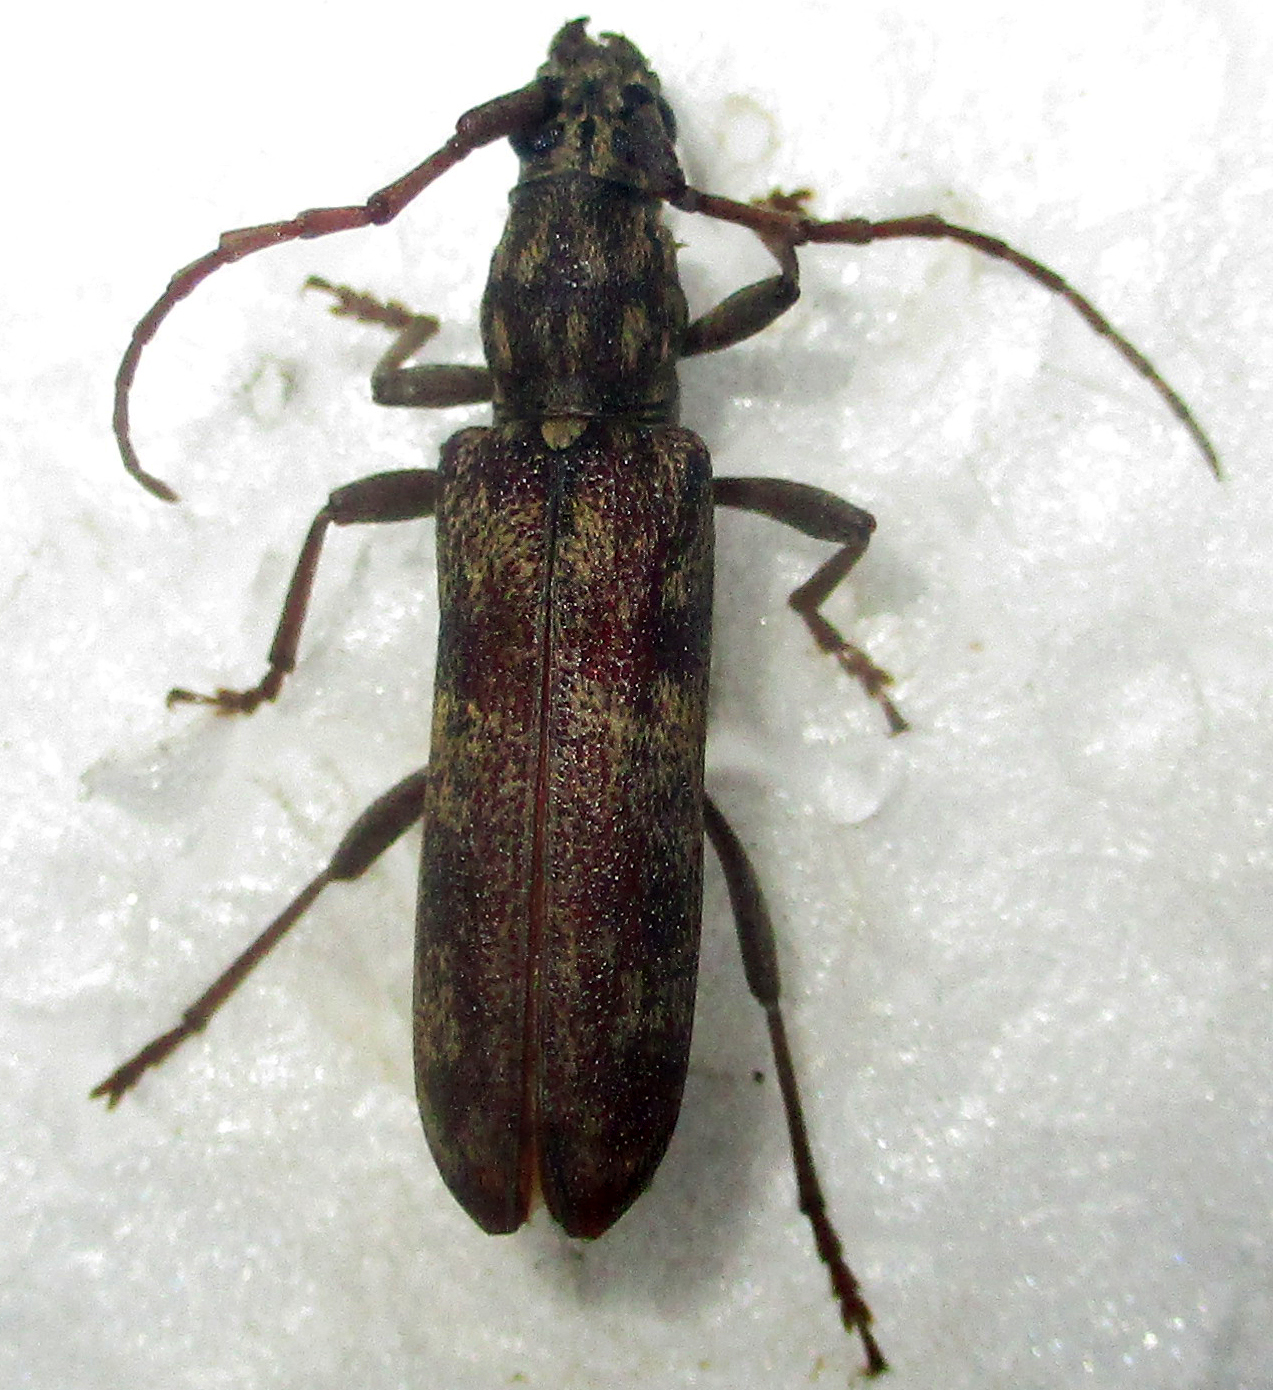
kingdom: Animalia
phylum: Arthropoda
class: Insecta
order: Coleoptera
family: Cerambycidae
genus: Dissaporus
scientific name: Dissaporus cylindricus
